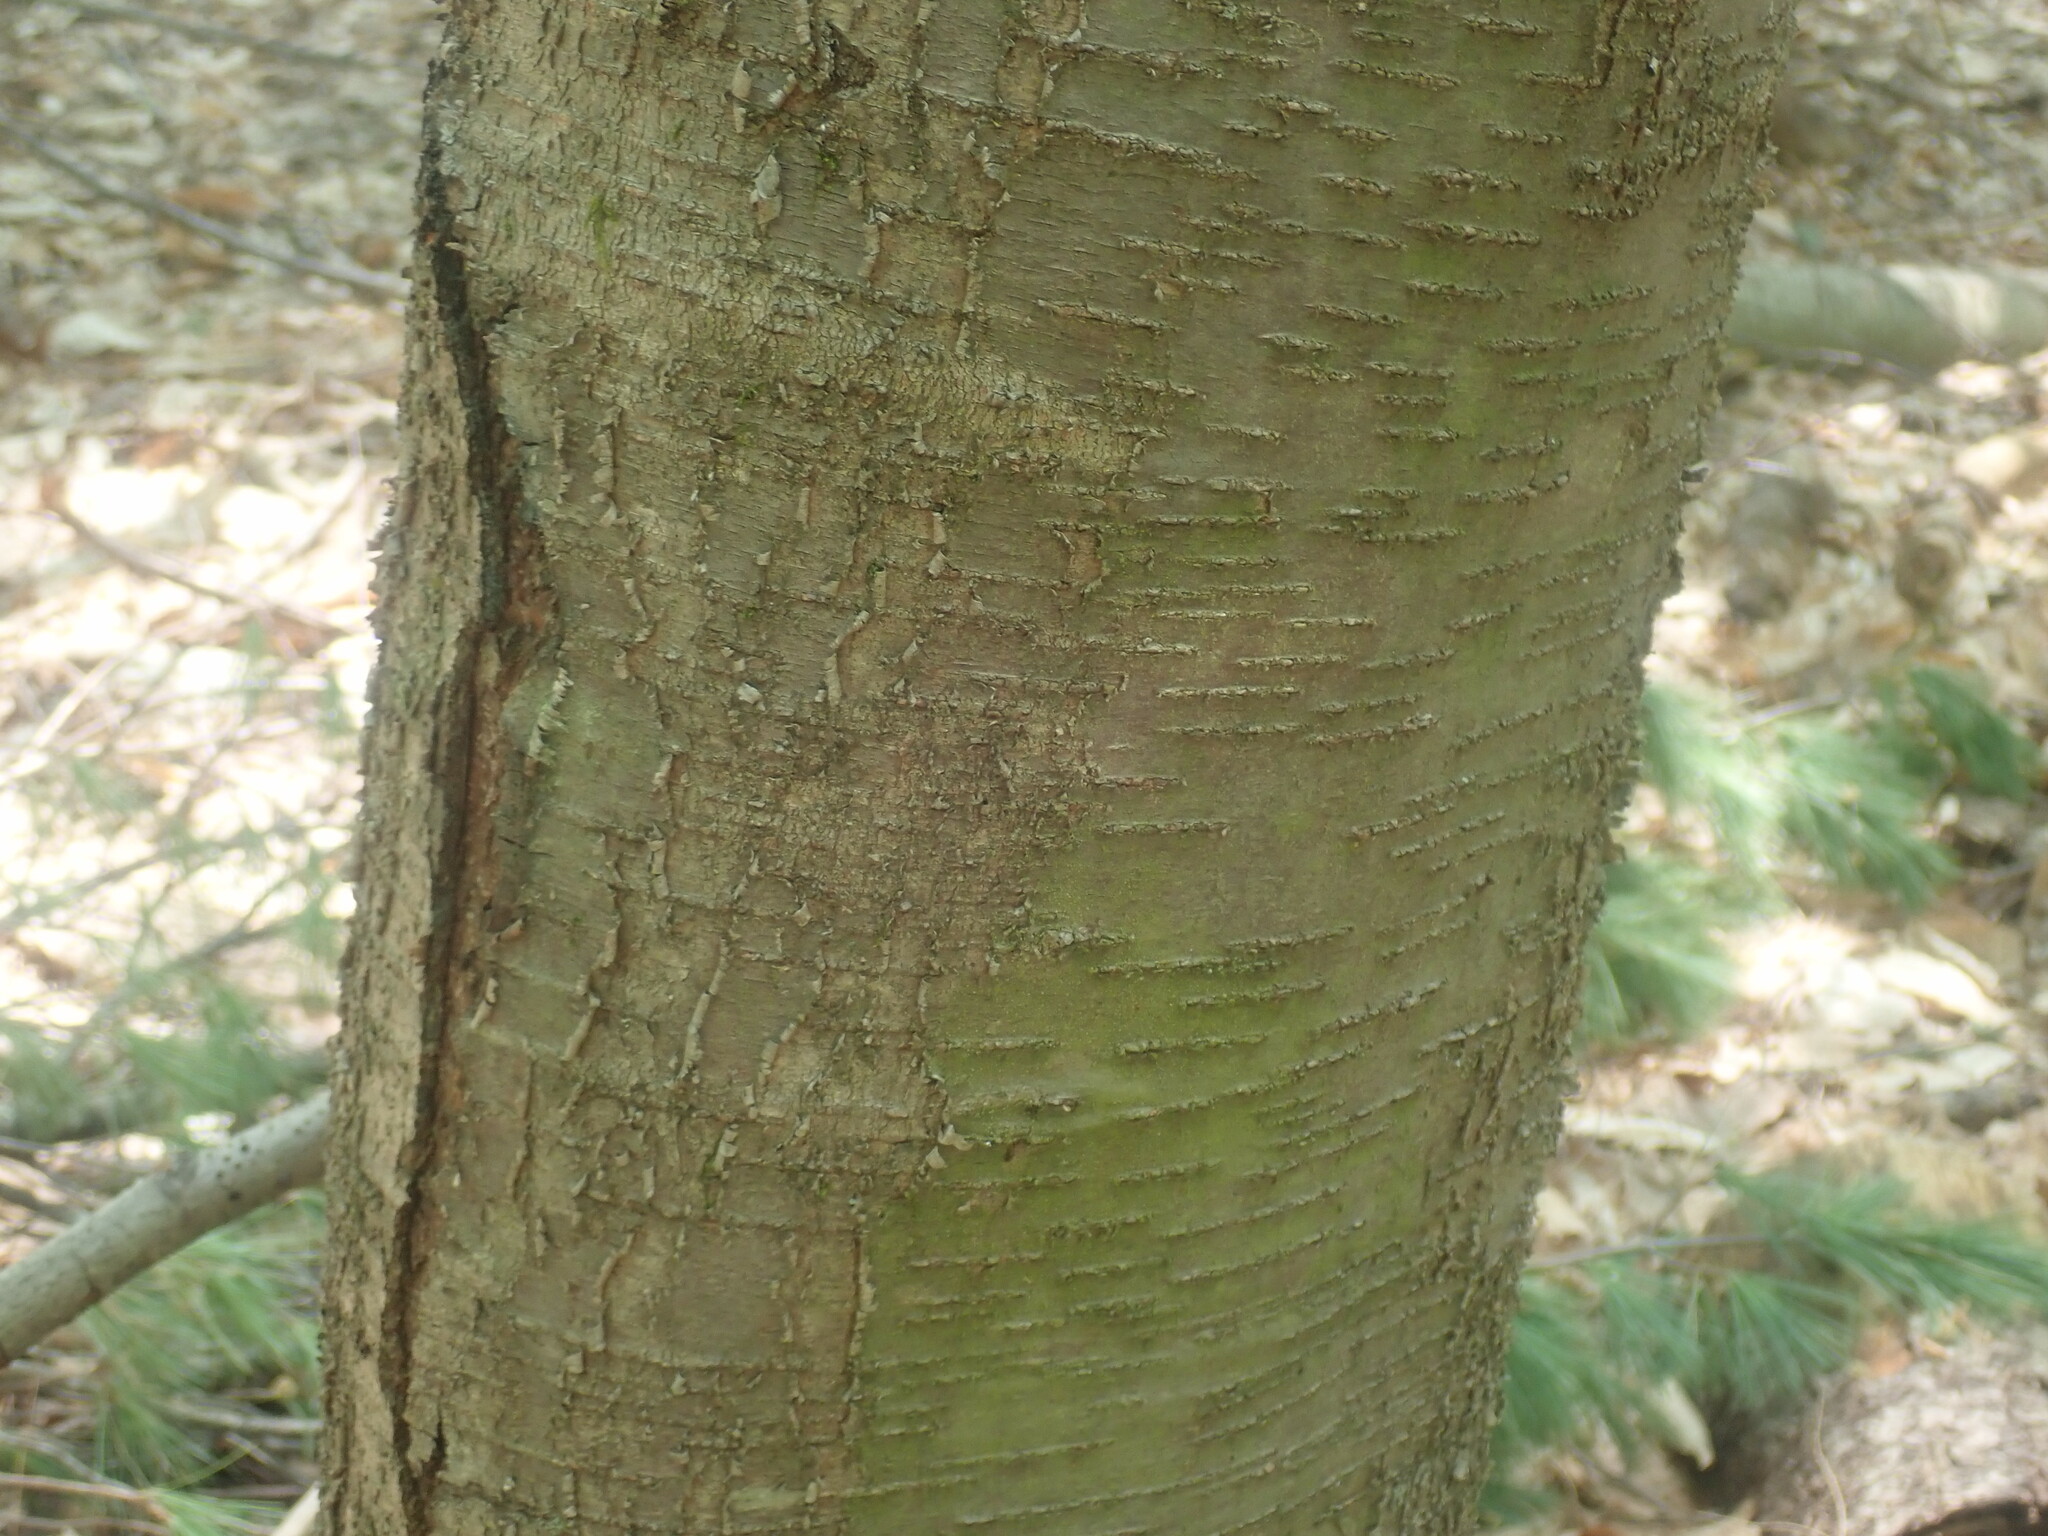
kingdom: Plantae
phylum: Tracheophyta
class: Magnoliopsida
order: Fagales
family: Betulaceae
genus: Betula
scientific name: Betula lenta
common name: Black birch
